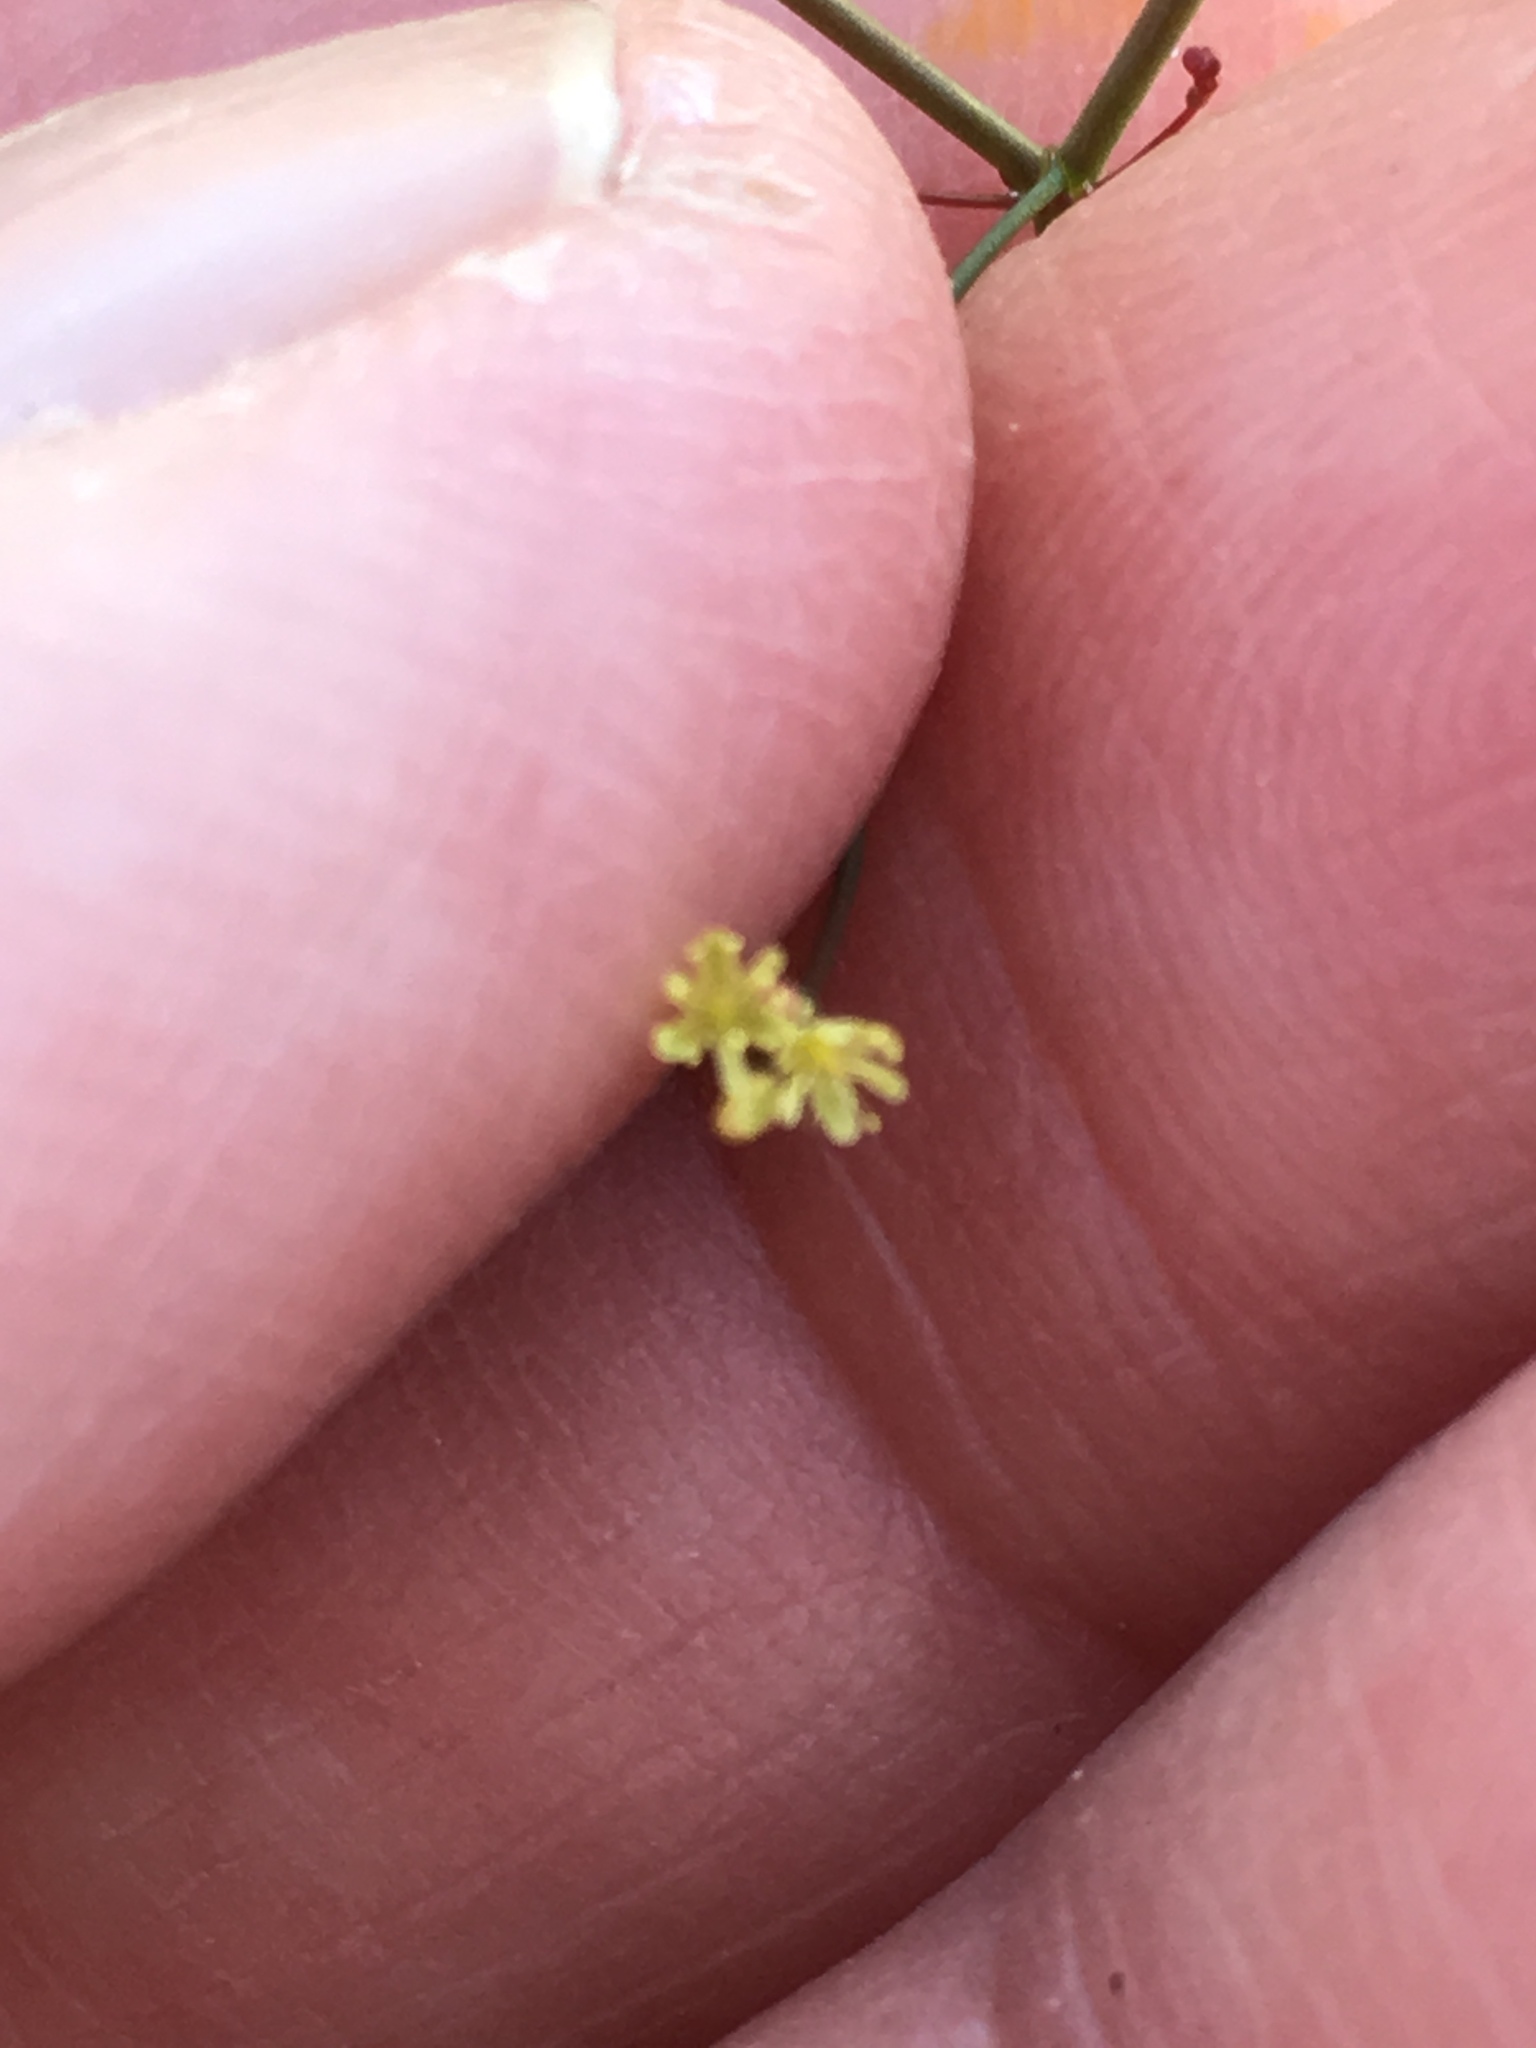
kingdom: Plantae
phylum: Tracheophyta
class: Magnoliopsida
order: Caryophyllales
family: Polygonaceae
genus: Eriogonum
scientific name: Eriogonum inflatum
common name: Desert trumpet
